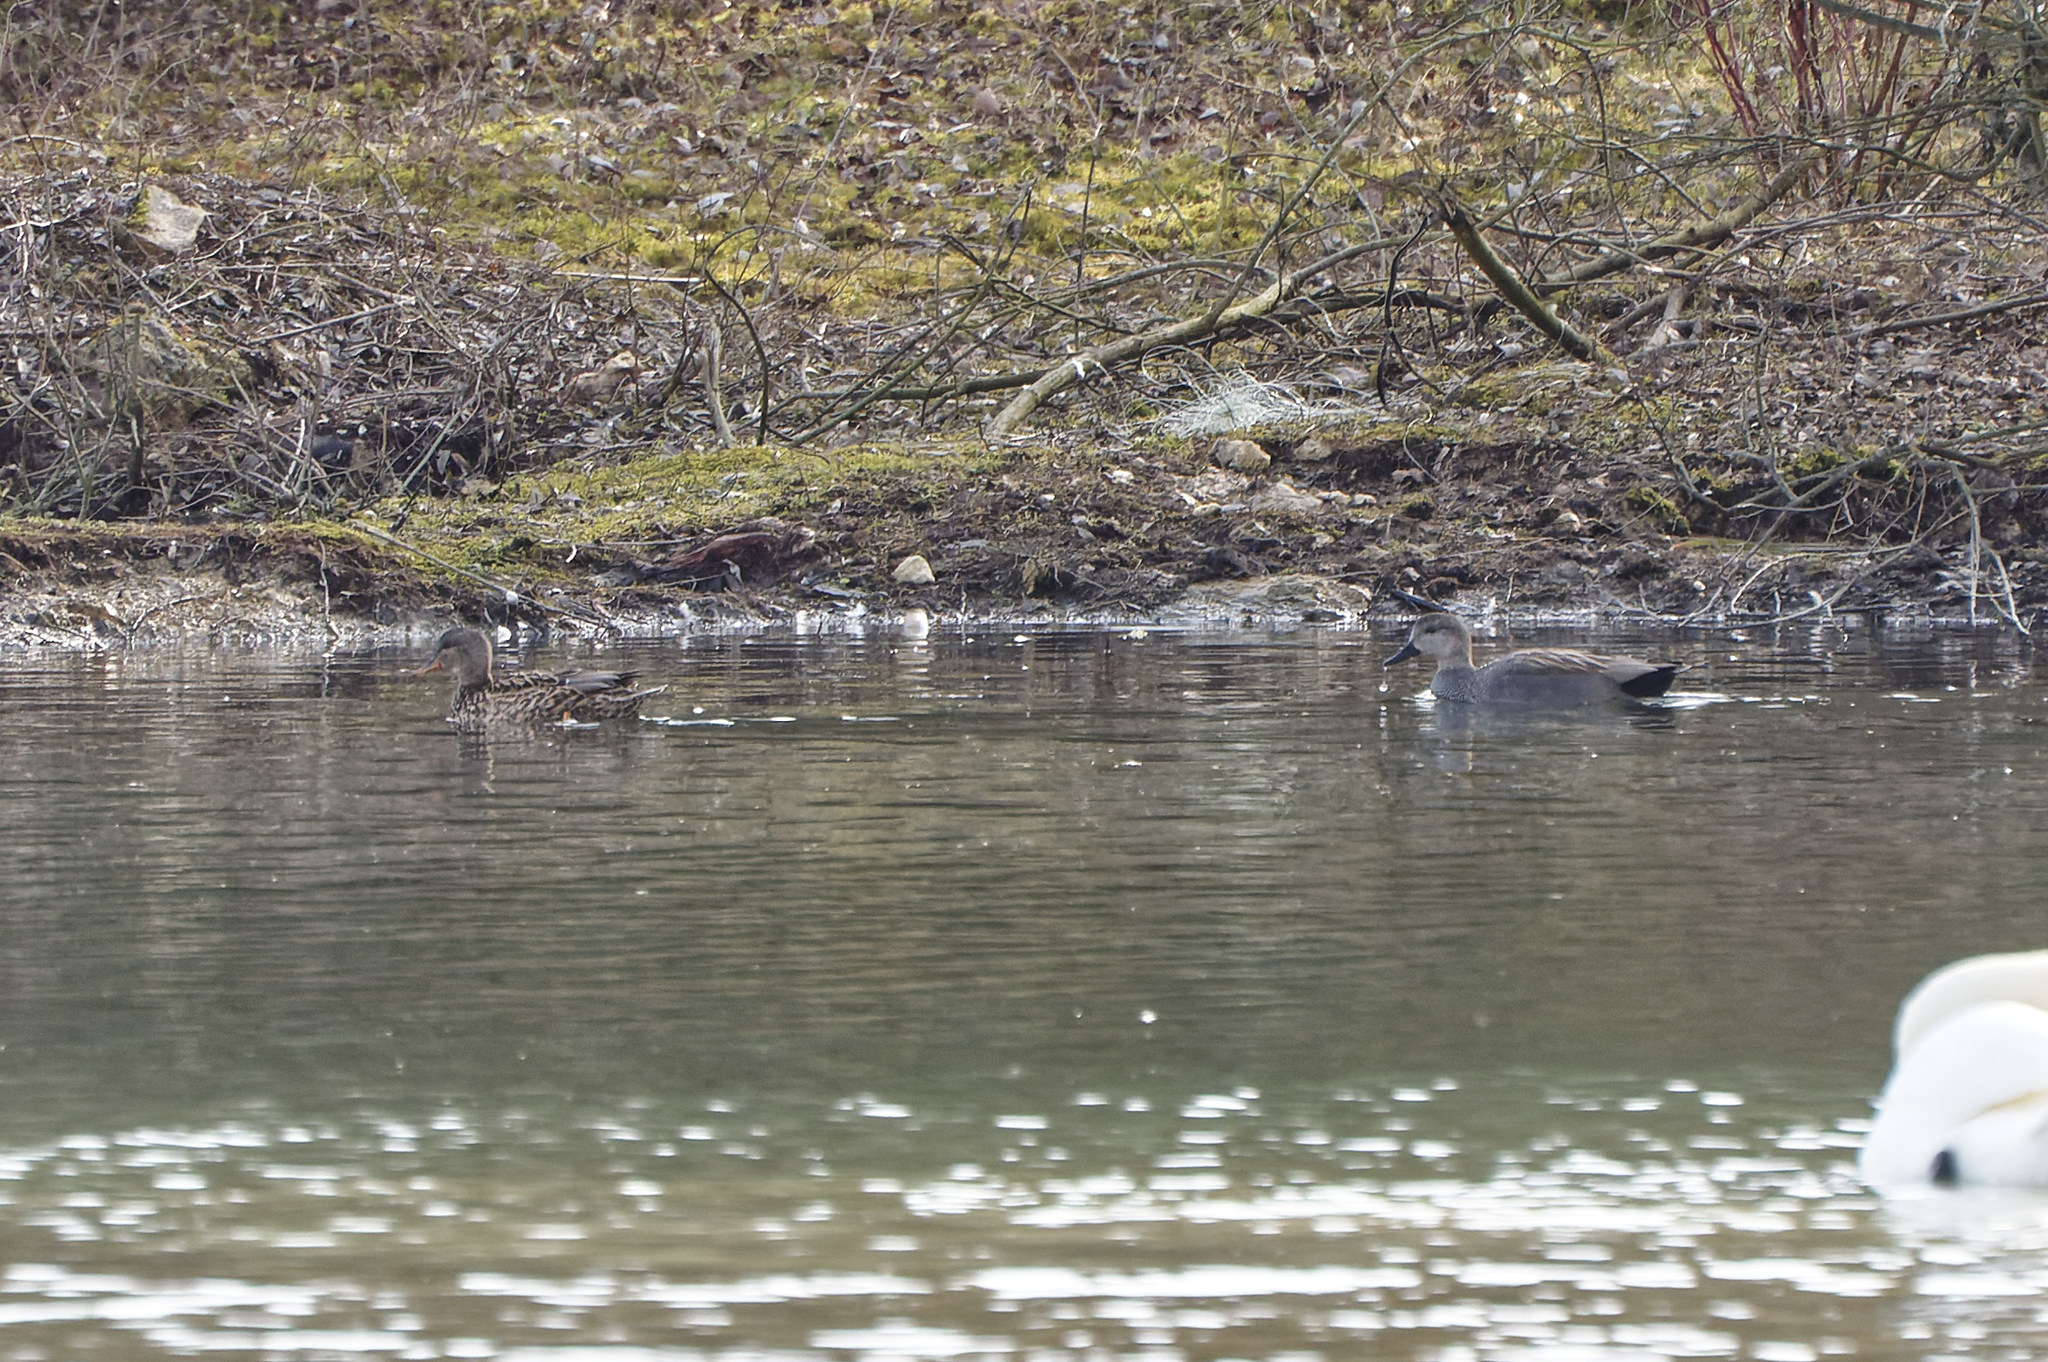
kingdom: Animalia
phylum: Chordata
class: Aves
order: Anseriformes
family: Anatidae
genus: Mareca
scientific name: Mareca strepera
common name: Gadwall
